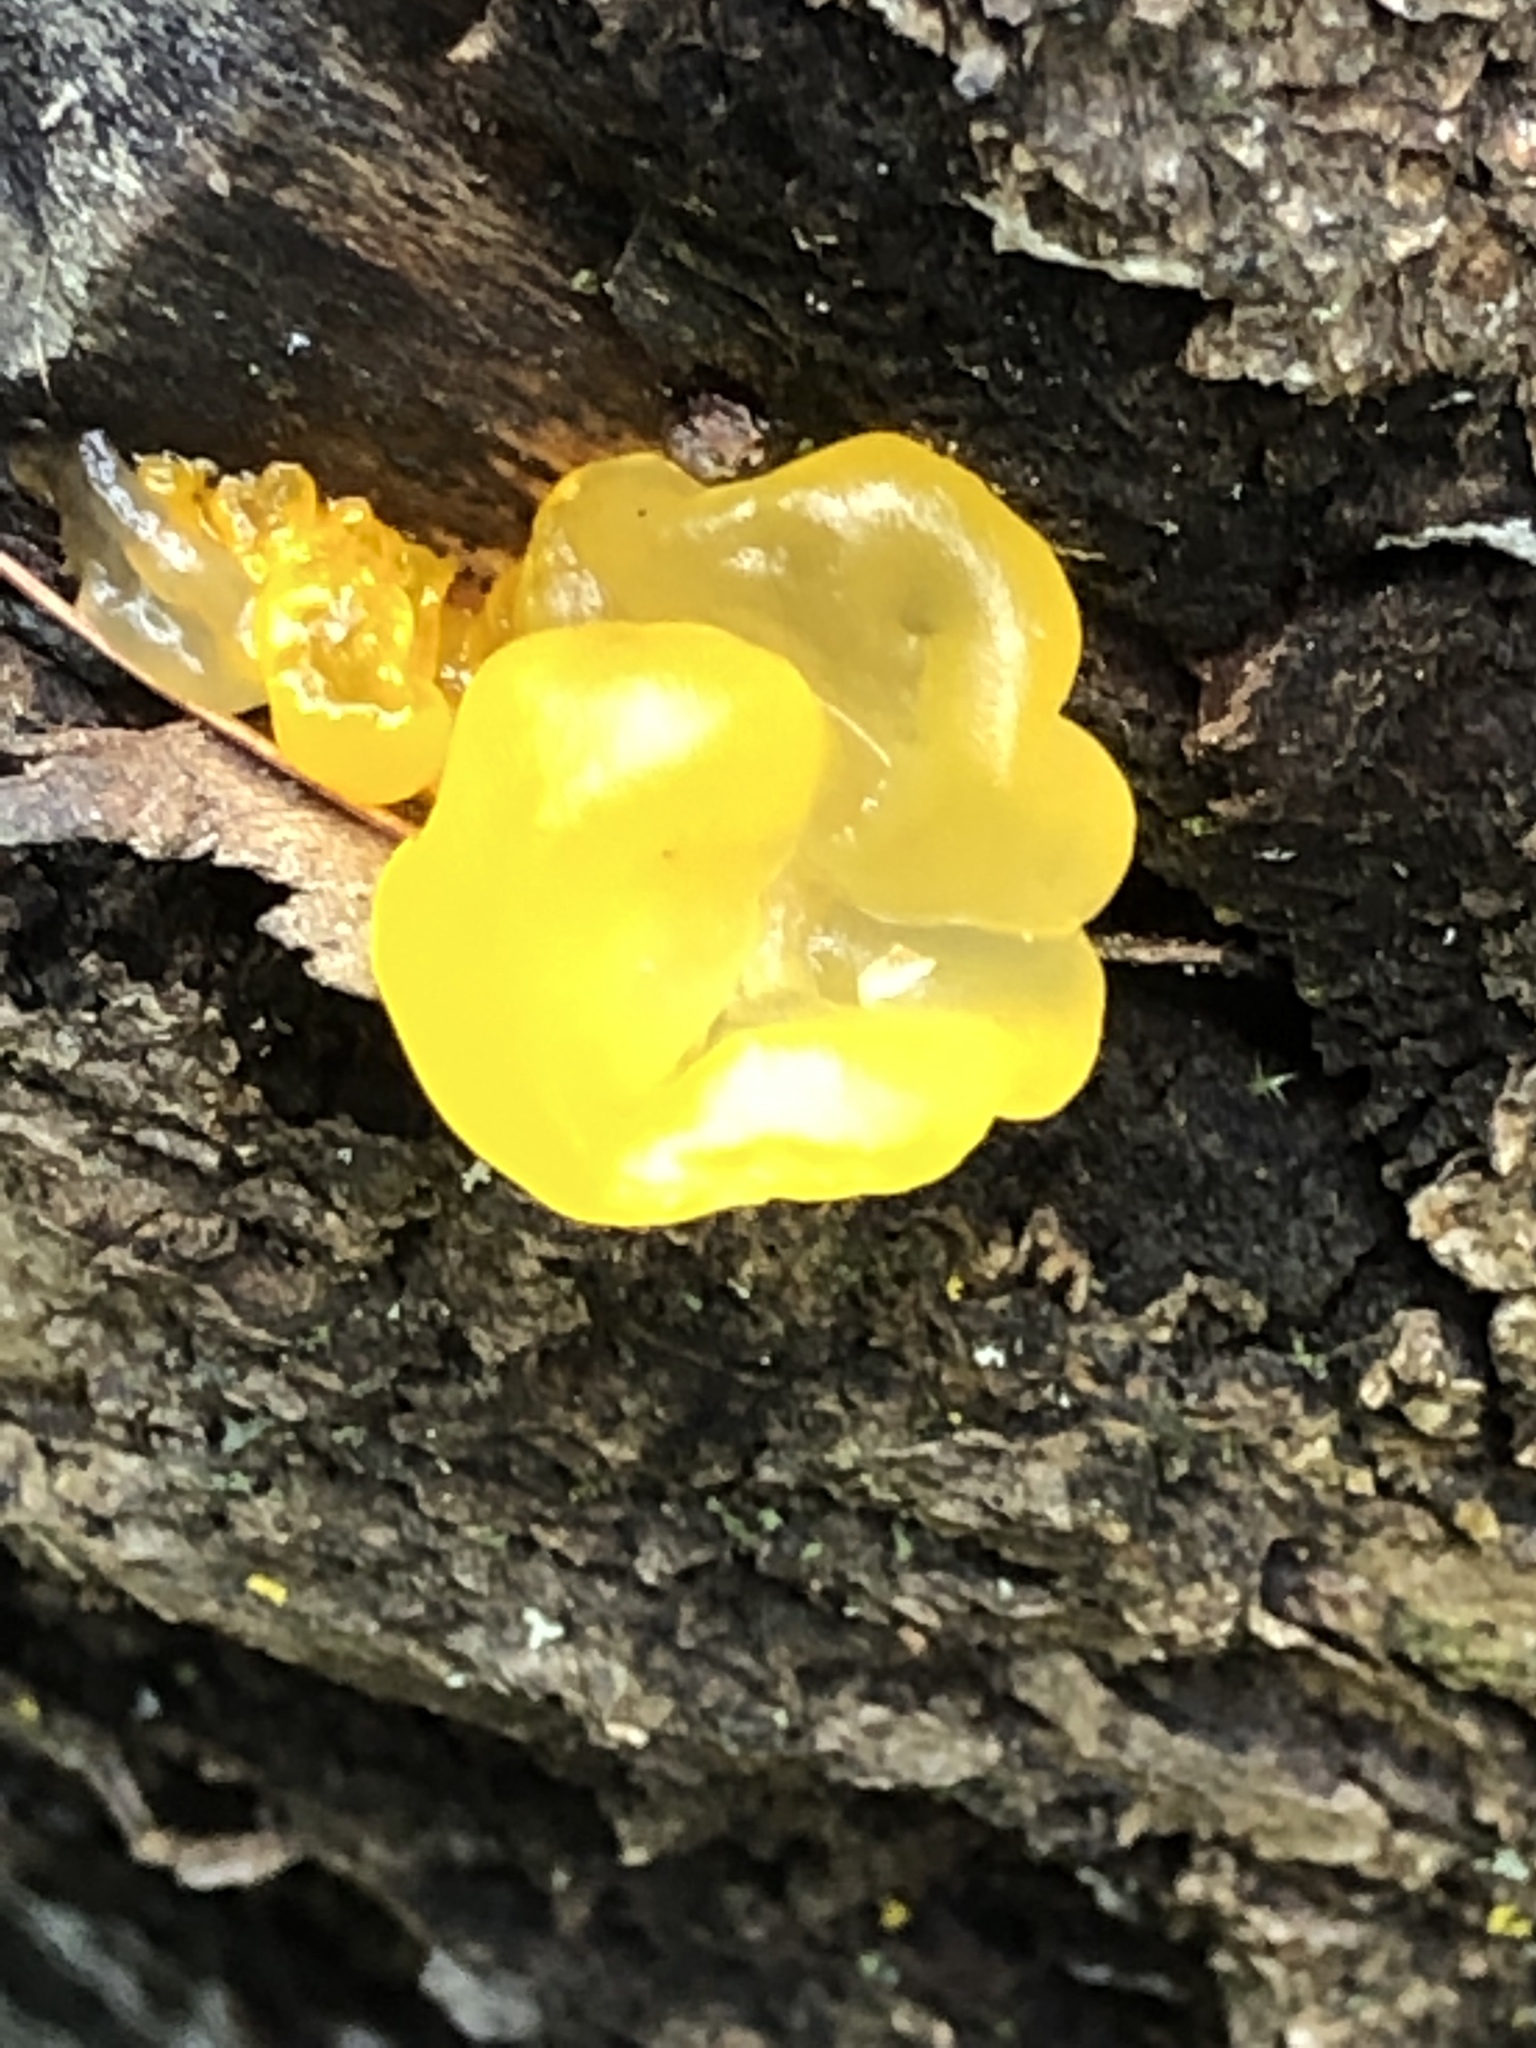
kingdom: Fungi
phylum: Basidiomycota
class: Tremellomycetes
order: Tremellales
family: Tremellaceae
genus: Tremella
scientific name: Tremella mesenterica
